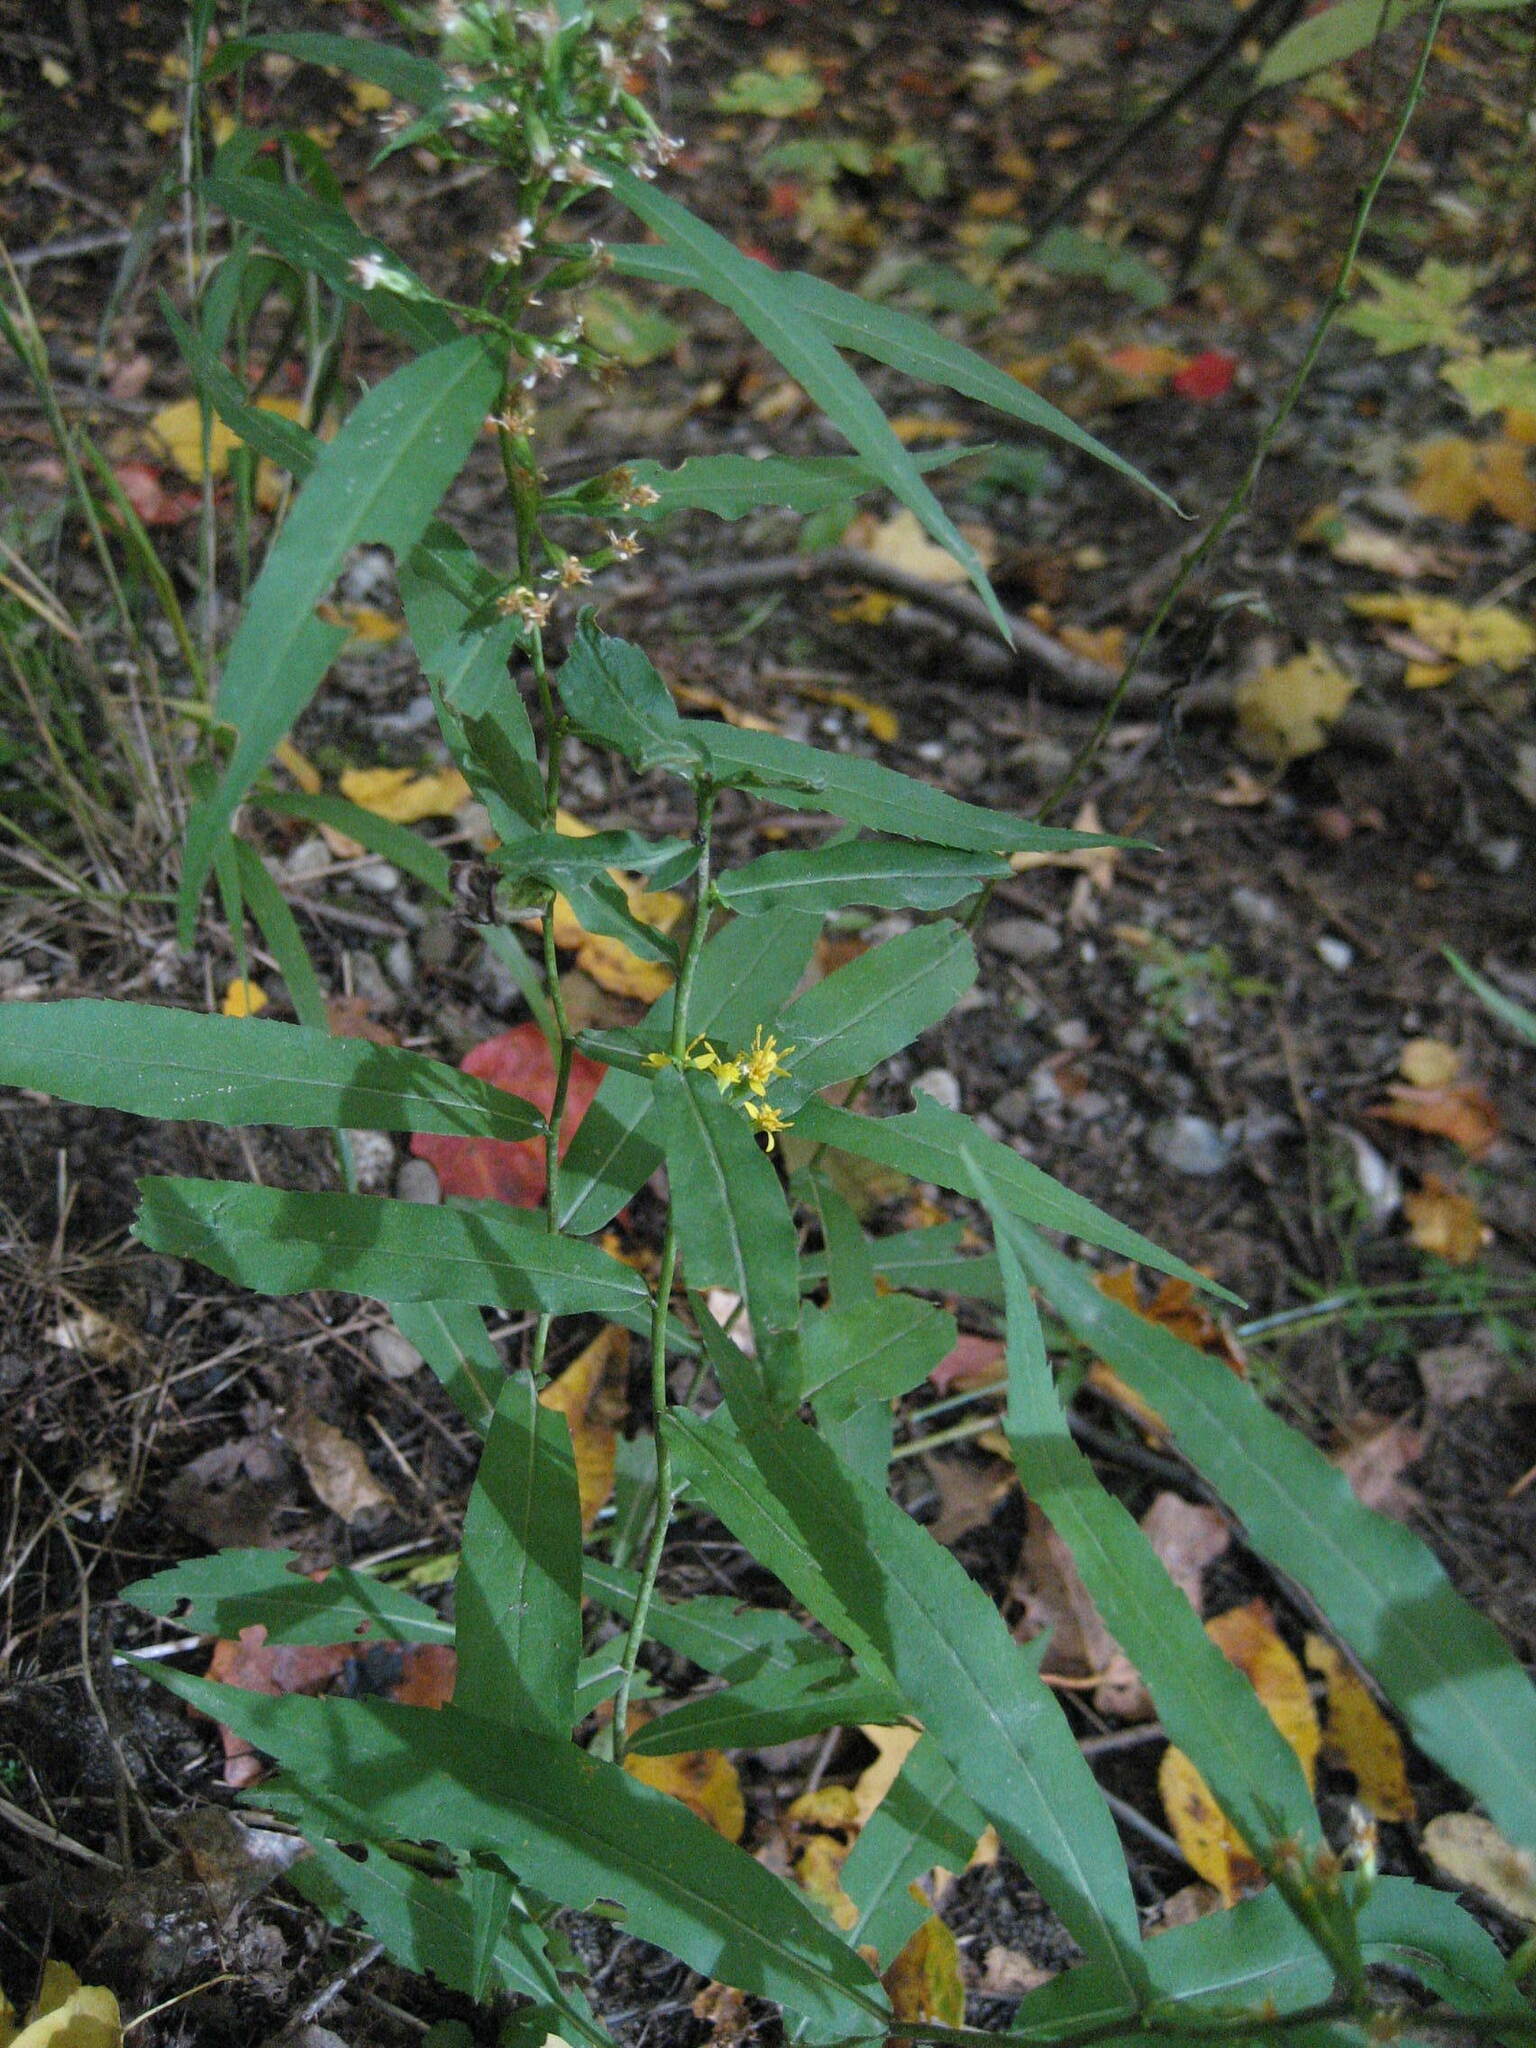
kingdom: Plantae
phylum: Tracheophyta
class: Magnoliopsida
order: Asterales
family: Asteraceae
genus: Solidago
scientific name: Solidago caesia
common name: Woodland goldenrod
